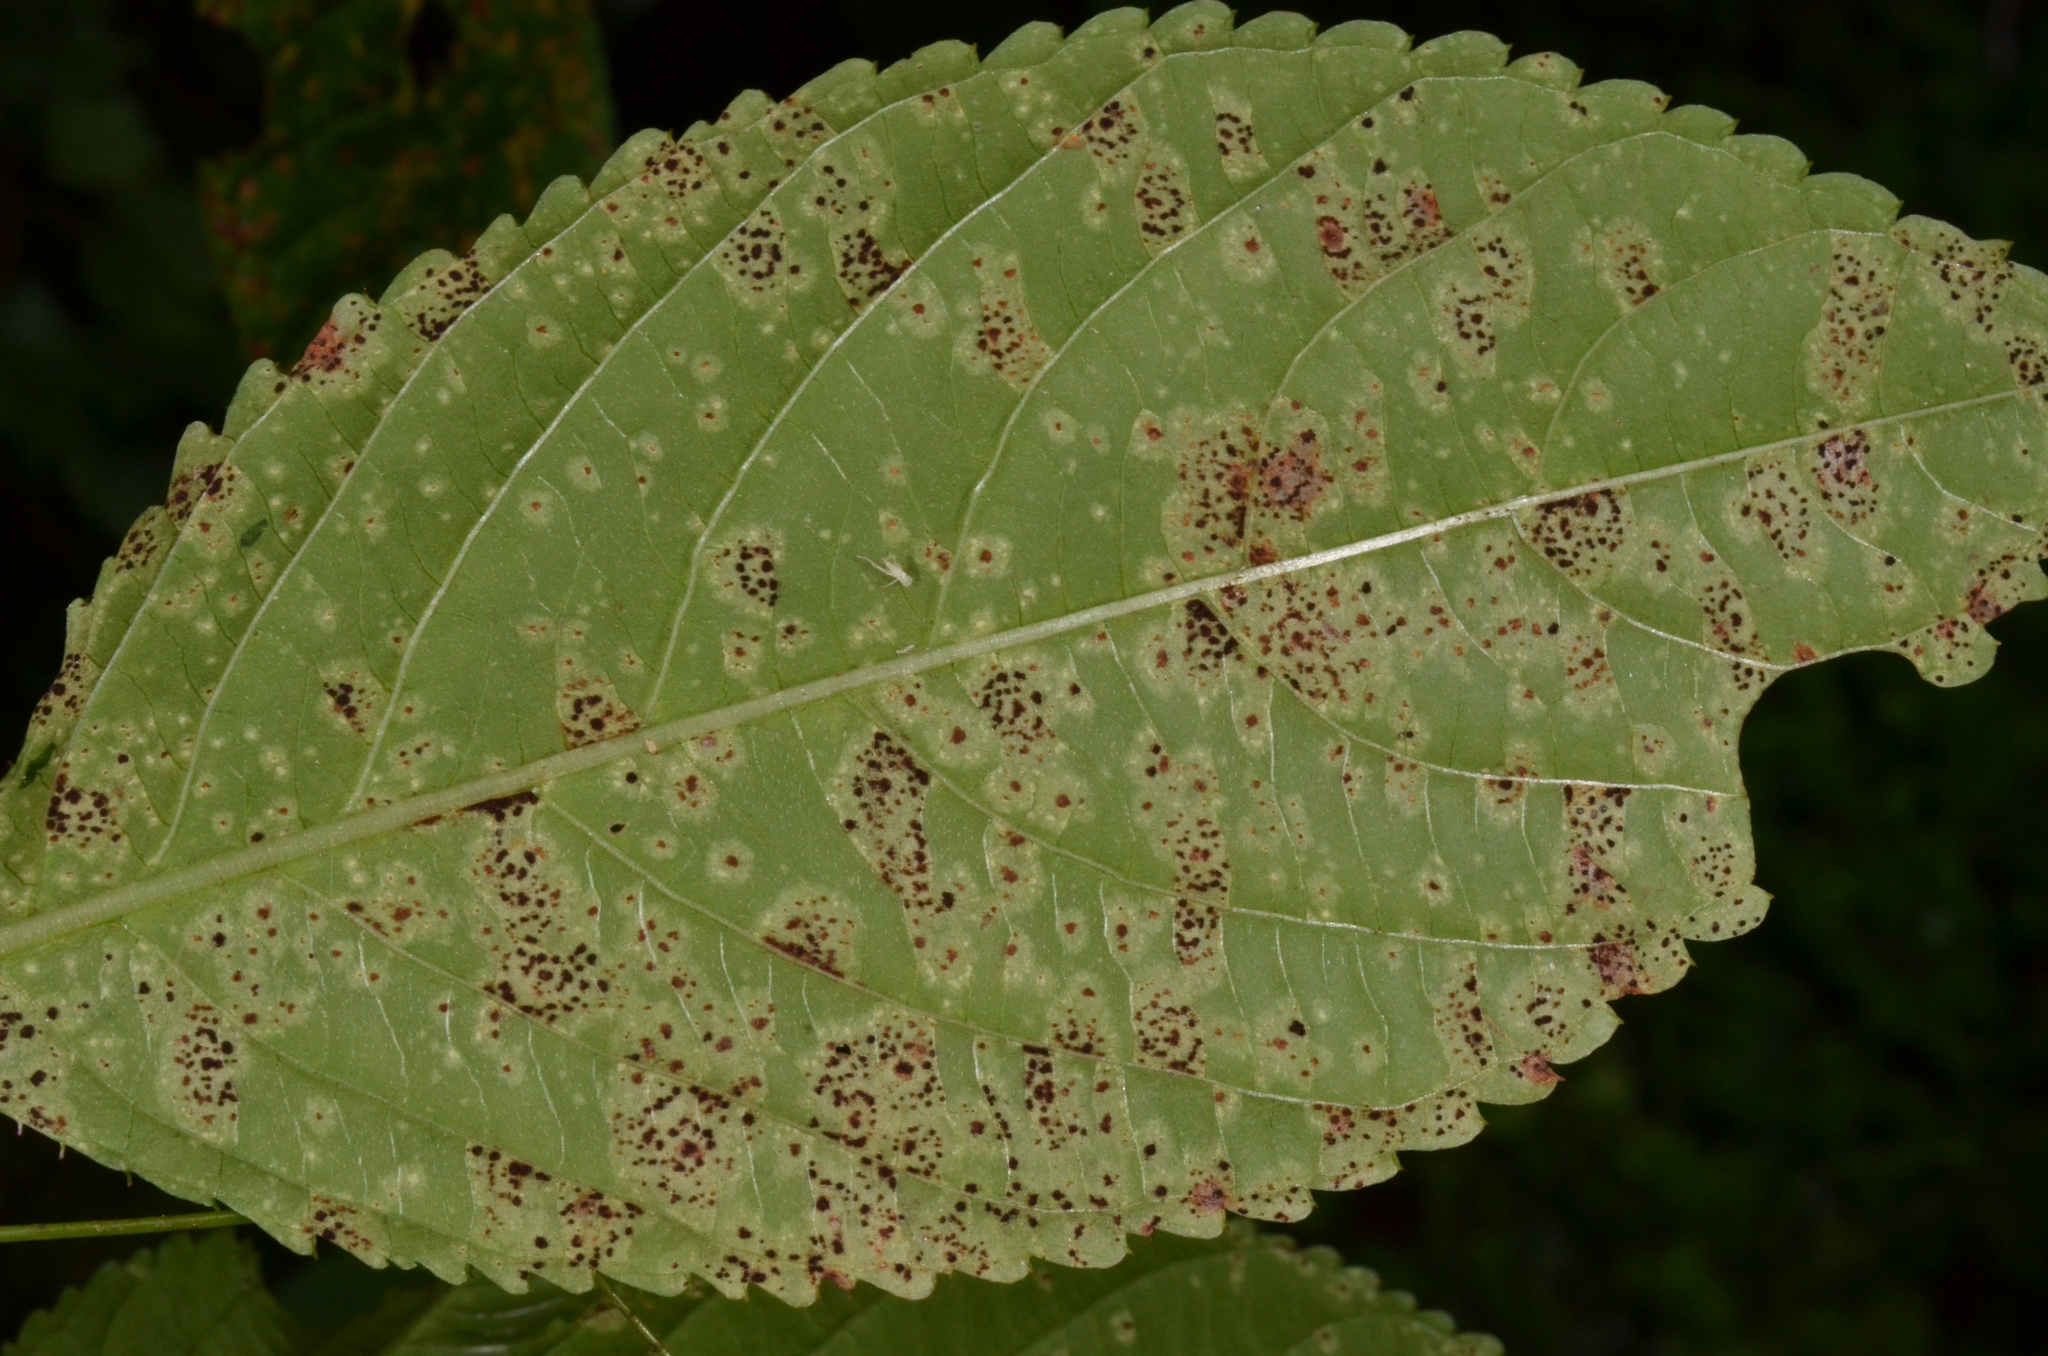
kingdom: Fungi
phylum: Basidiomycota
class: Pucciniomycetes
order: Pucciniales
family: Pucciniaceae
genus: Puccinia
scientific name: Puccinia komarovii
